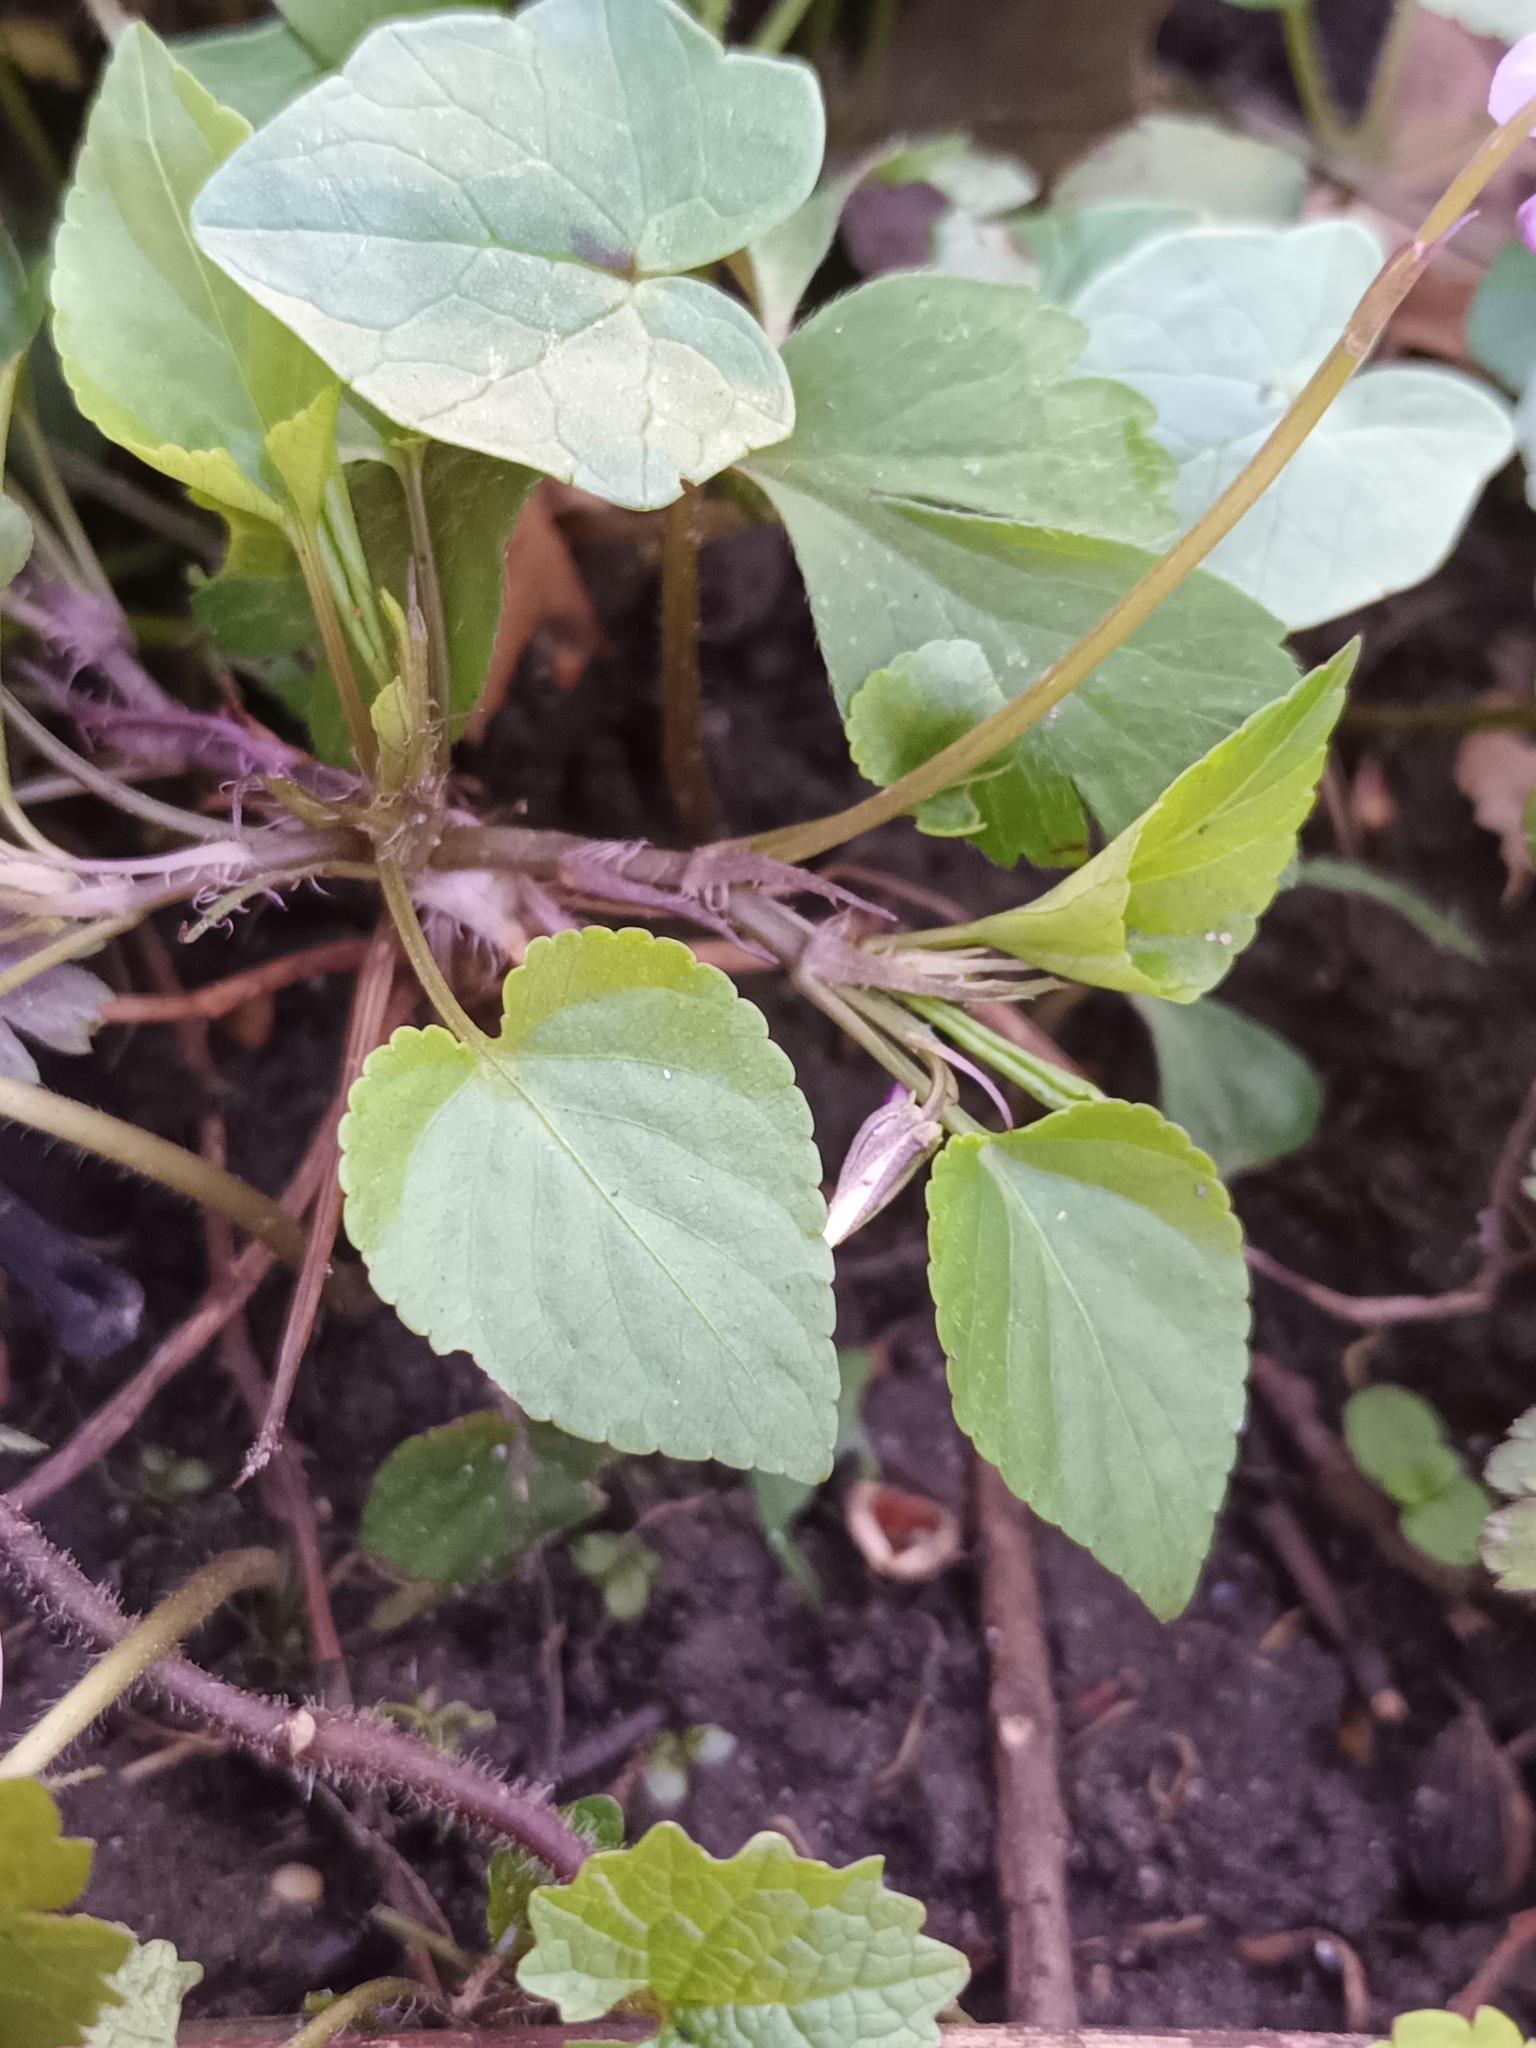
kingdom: Plantae
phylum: Tracheophyta
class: Magnoliopsida
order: Malpighiales
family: Violaceae
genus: Viola
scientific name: Viola reichenbachiana
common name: Early dog-violet
